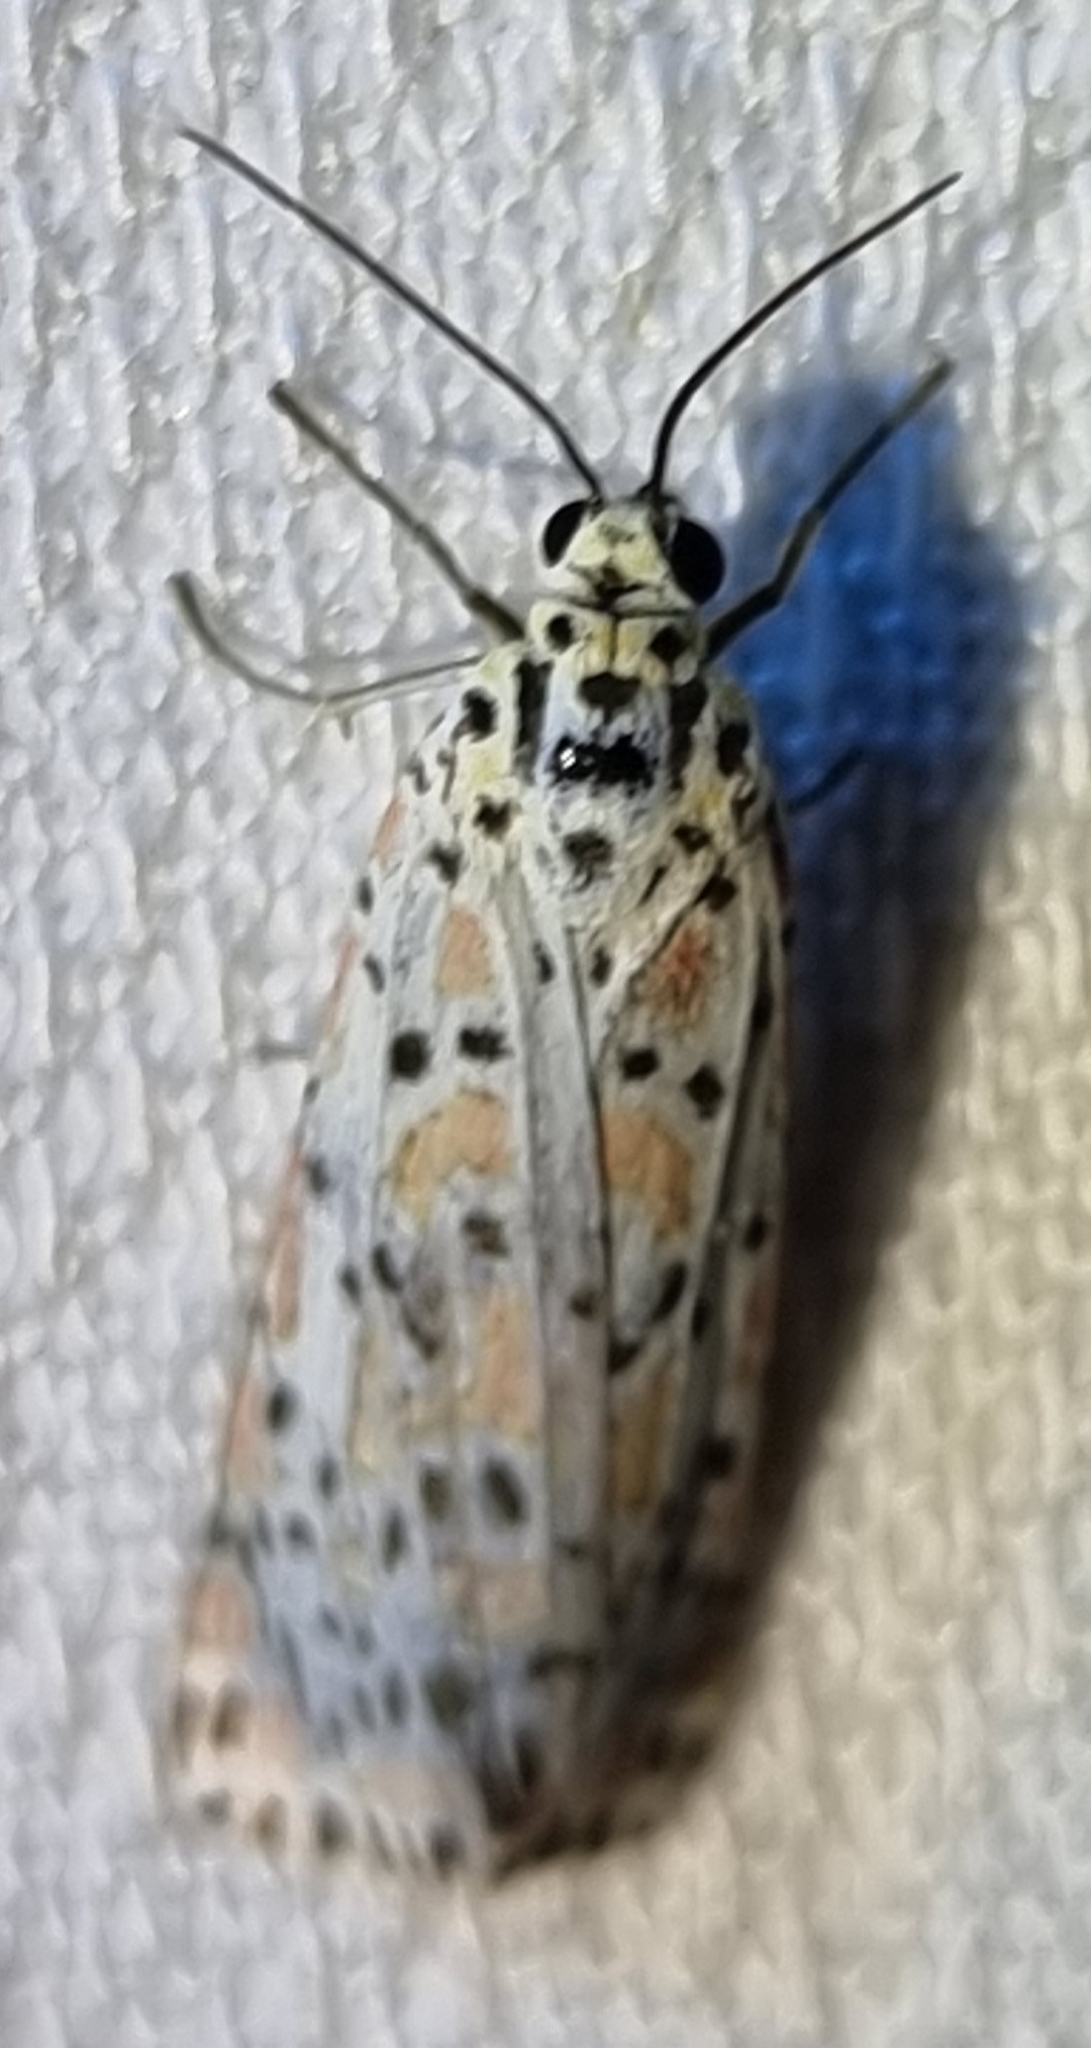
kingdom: Animalia
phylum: Arthropoda
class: Insecta
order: Lepidoptera
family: Erebidae
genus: Utetheisa
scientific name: Utetheisa lotrix
